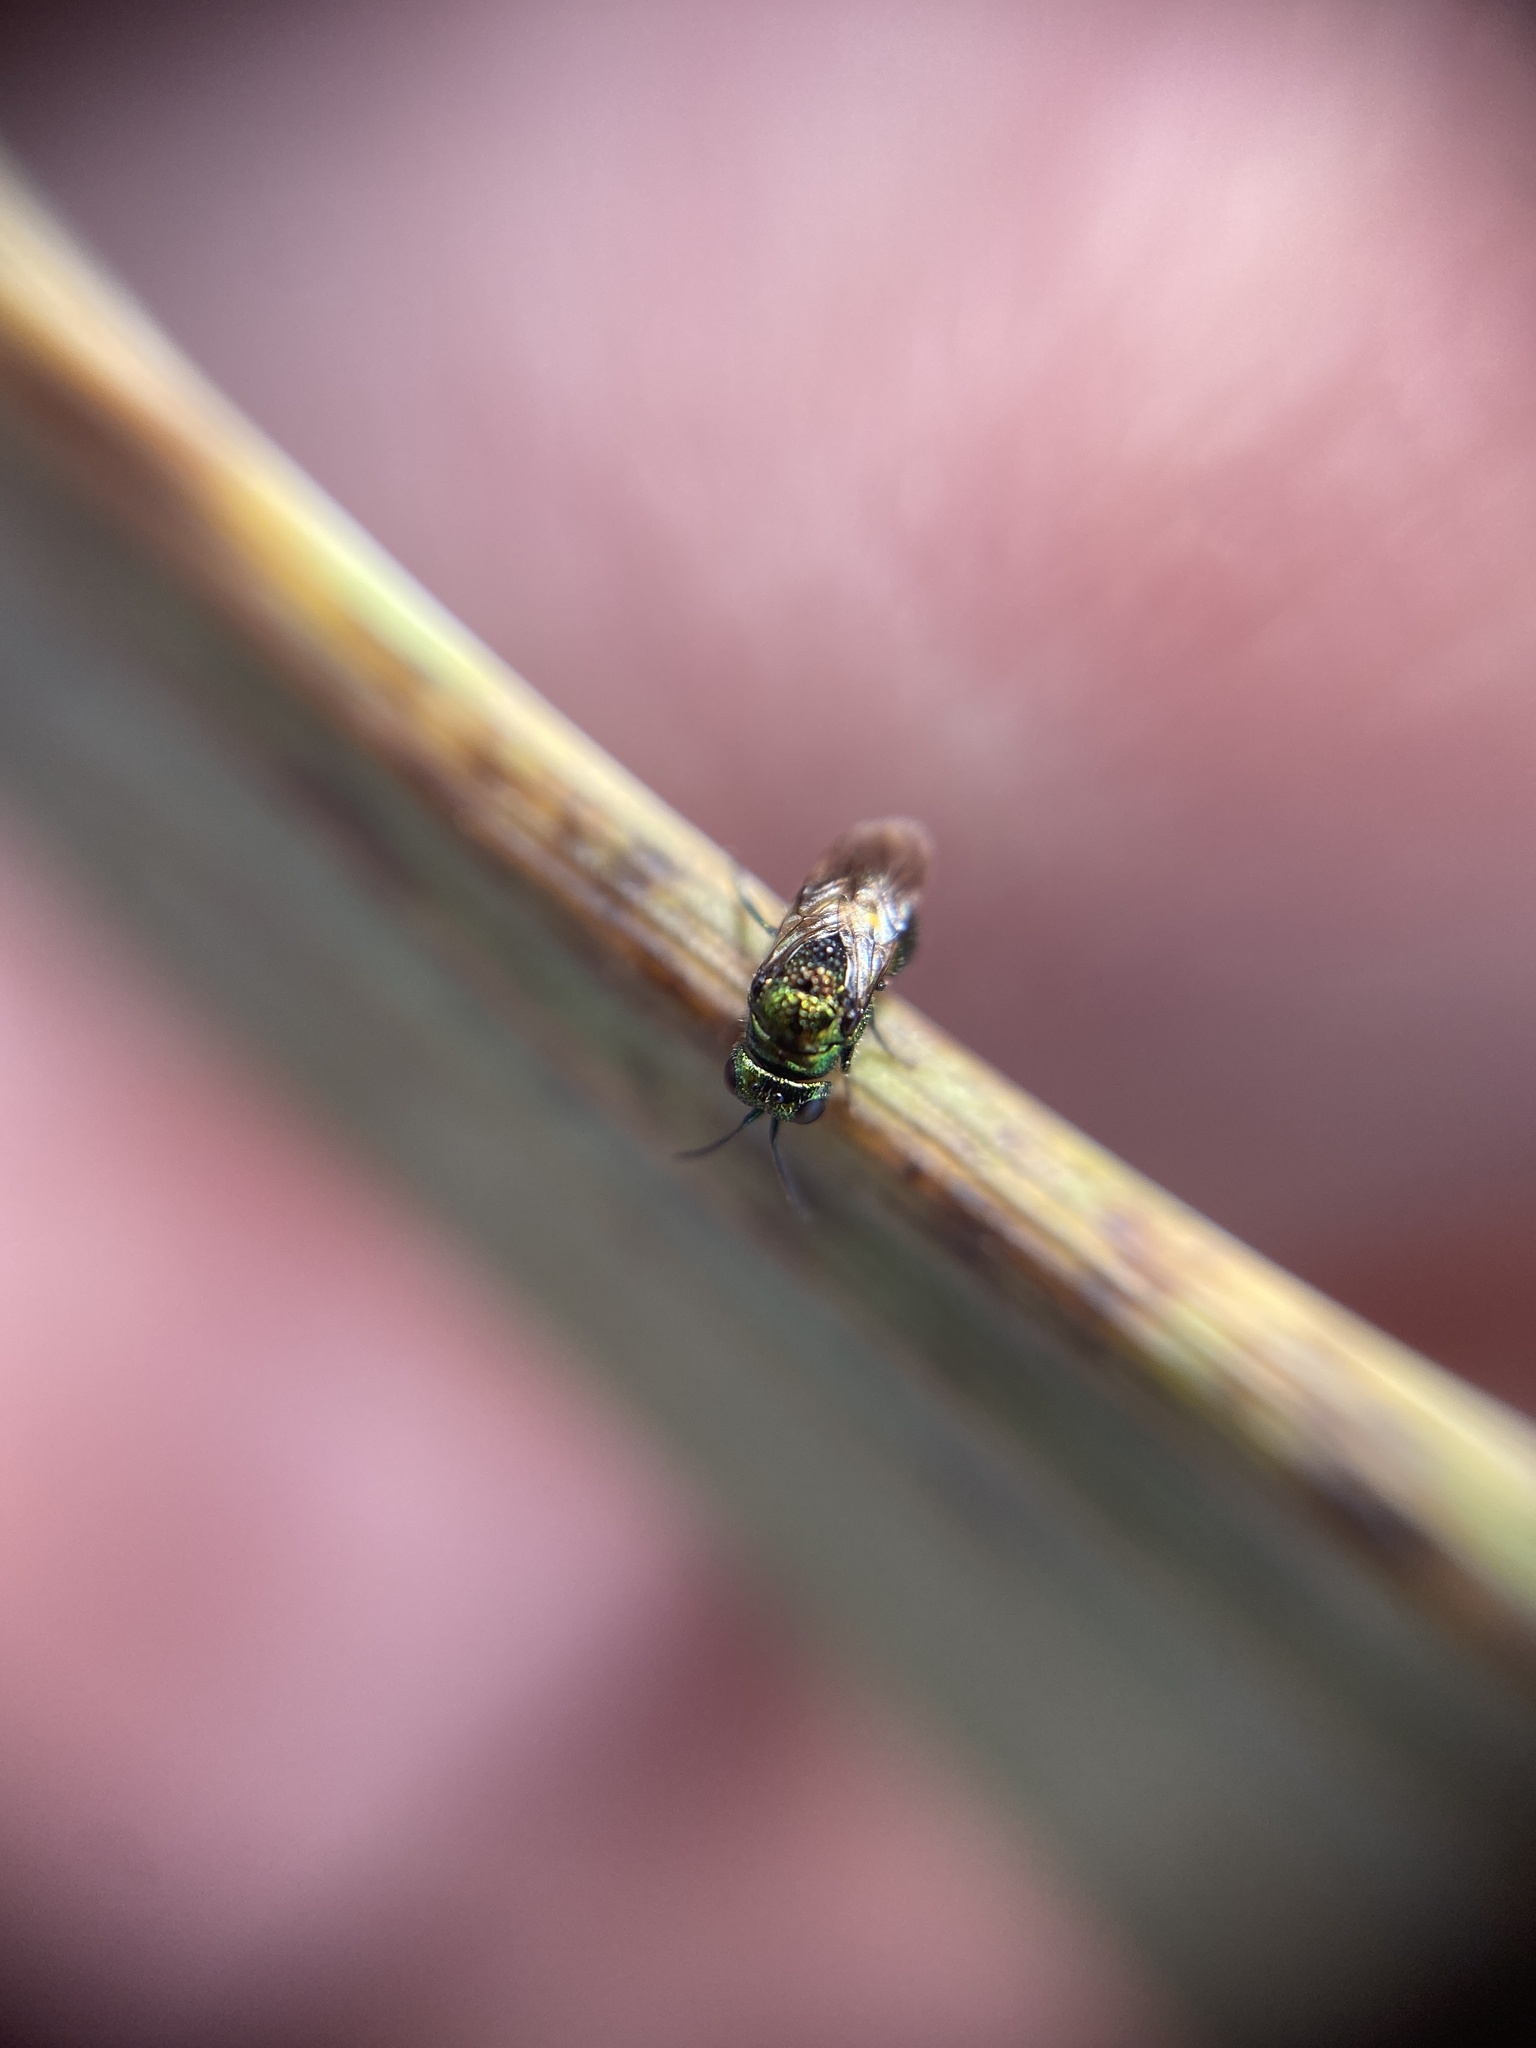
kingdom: Animalia
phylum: Arthropoda
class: Insecta
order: Hymenoptera
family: Chrysididae
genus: Pseudomalus
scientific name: Pseudomalus pusillus
